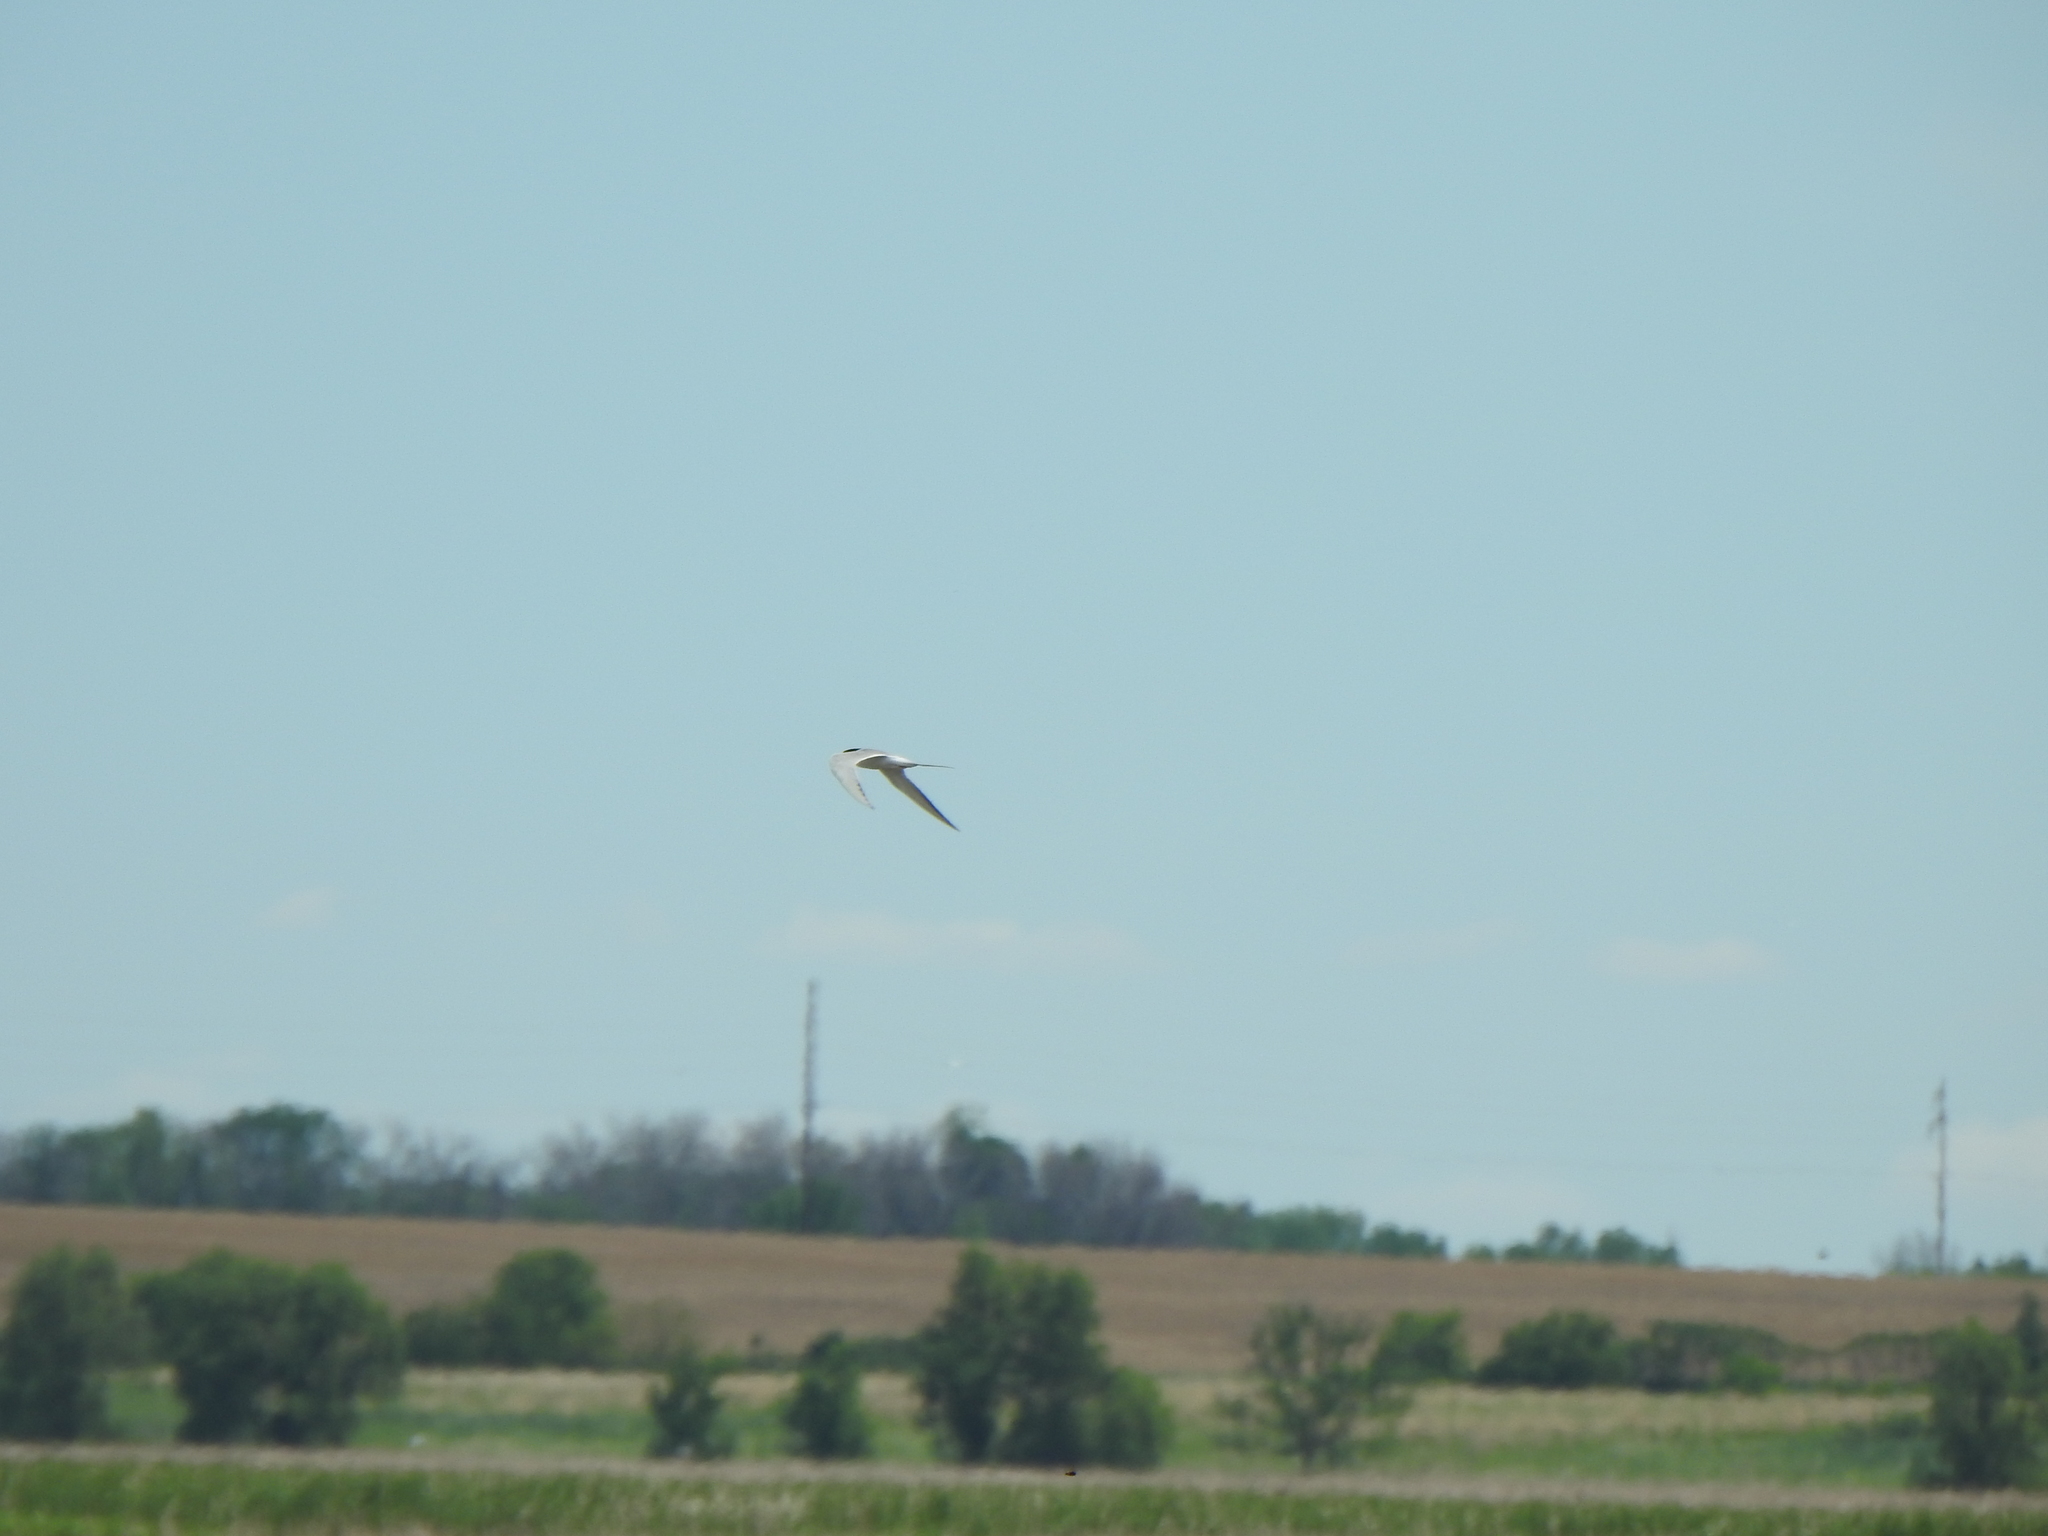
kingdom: Animalia
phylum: Chordata
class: Aves
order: Charadriiformes
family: Laridae
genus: Sterna
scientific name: Sterna forsteri
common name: Forster's tern
